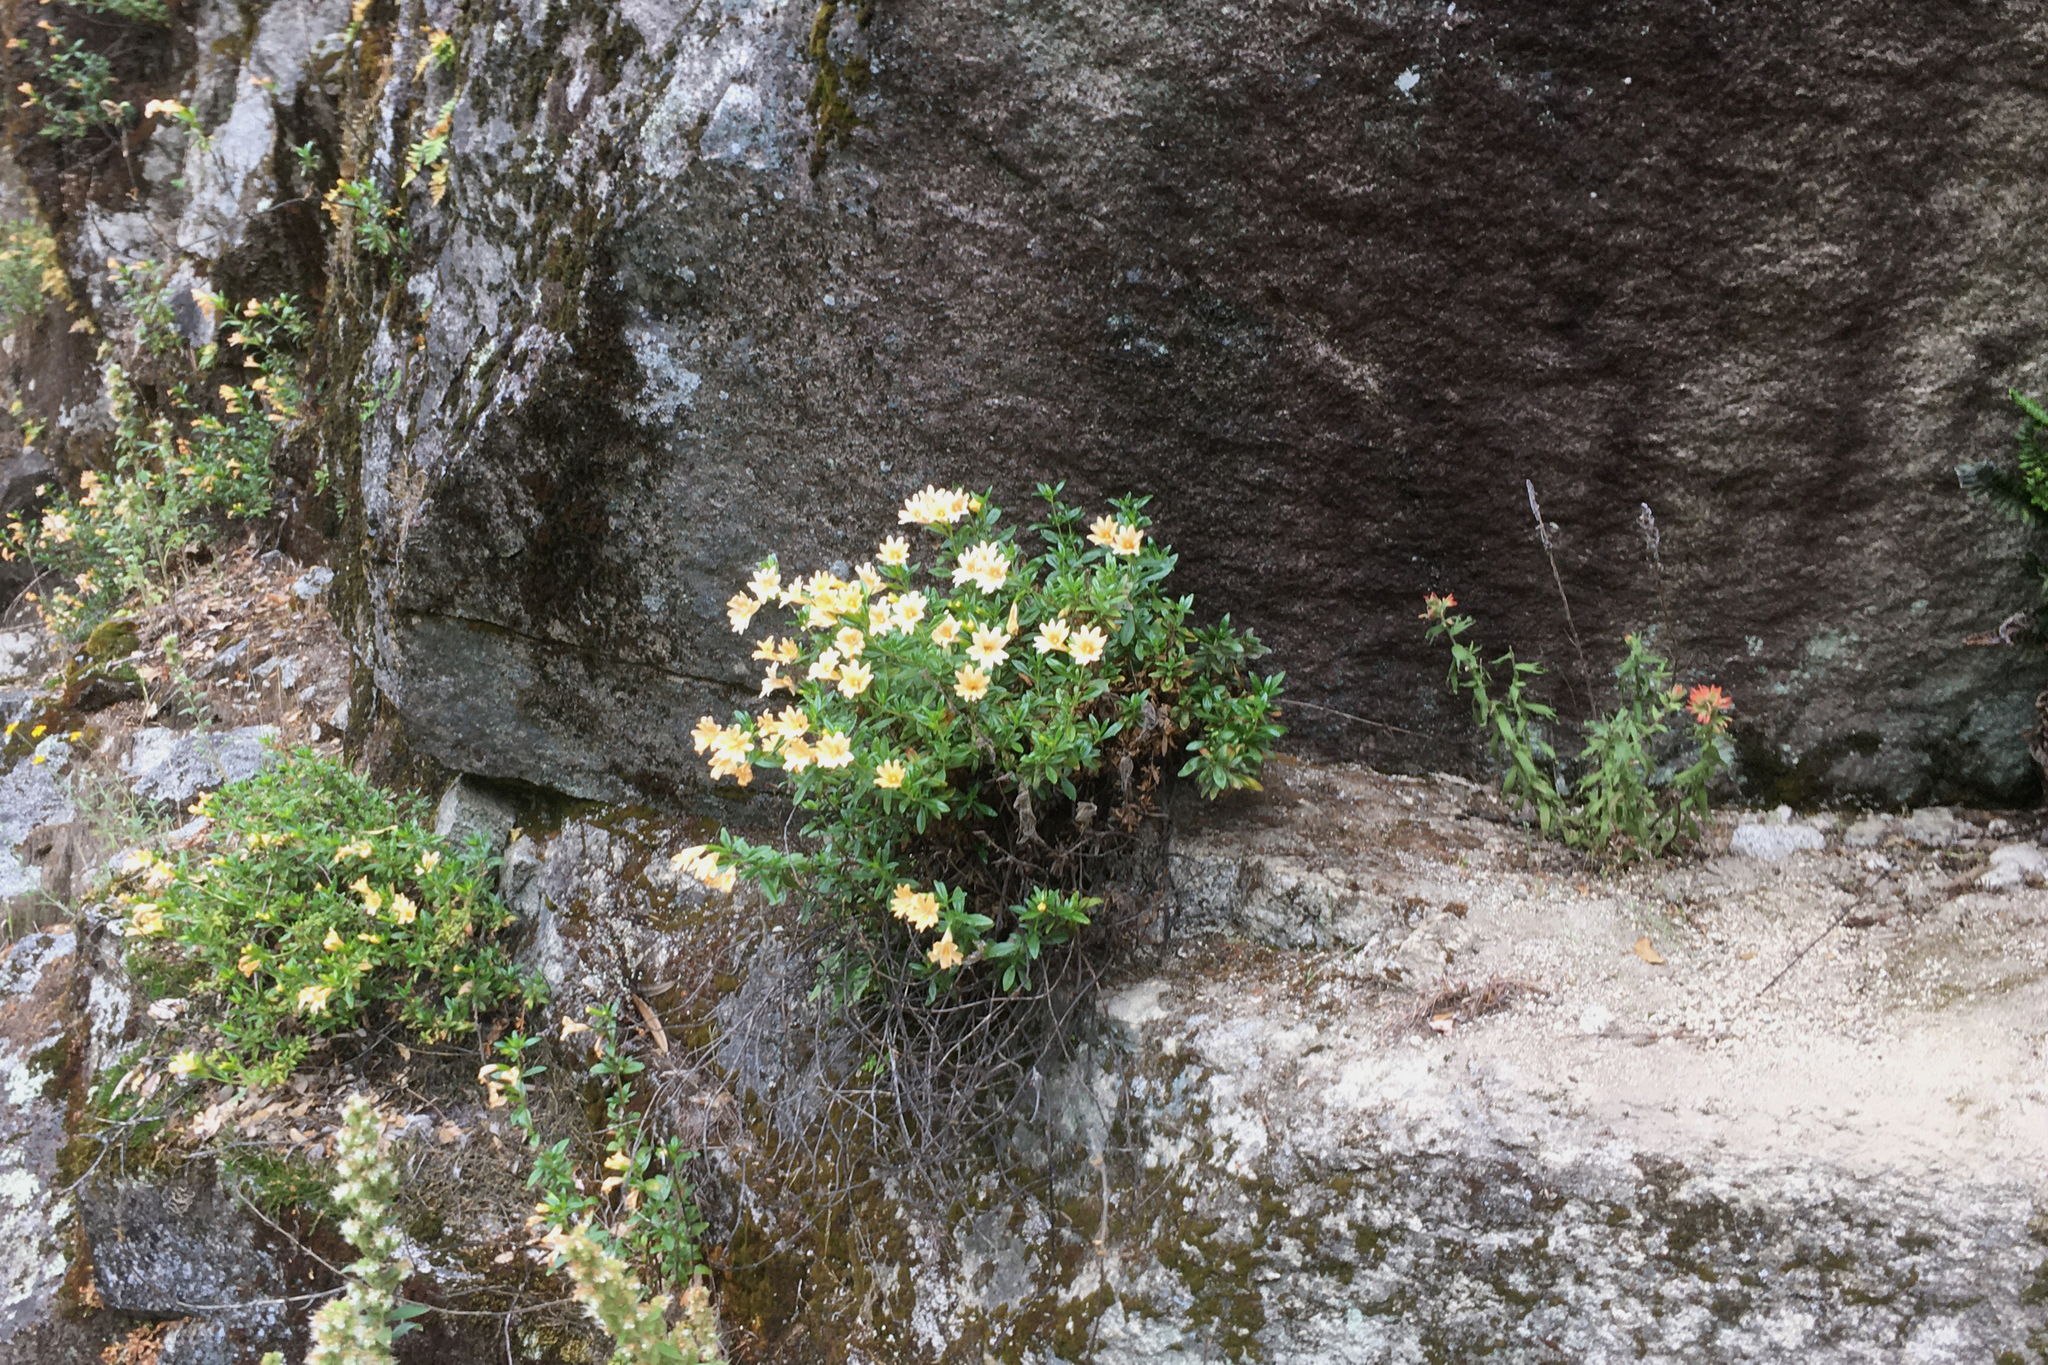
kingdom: Plantae
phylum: Tracheophyta
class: Magnoliopsida
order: Lamiales
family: Phrymaceae
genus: Diplacus
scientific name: Diplacus grandiflorus
